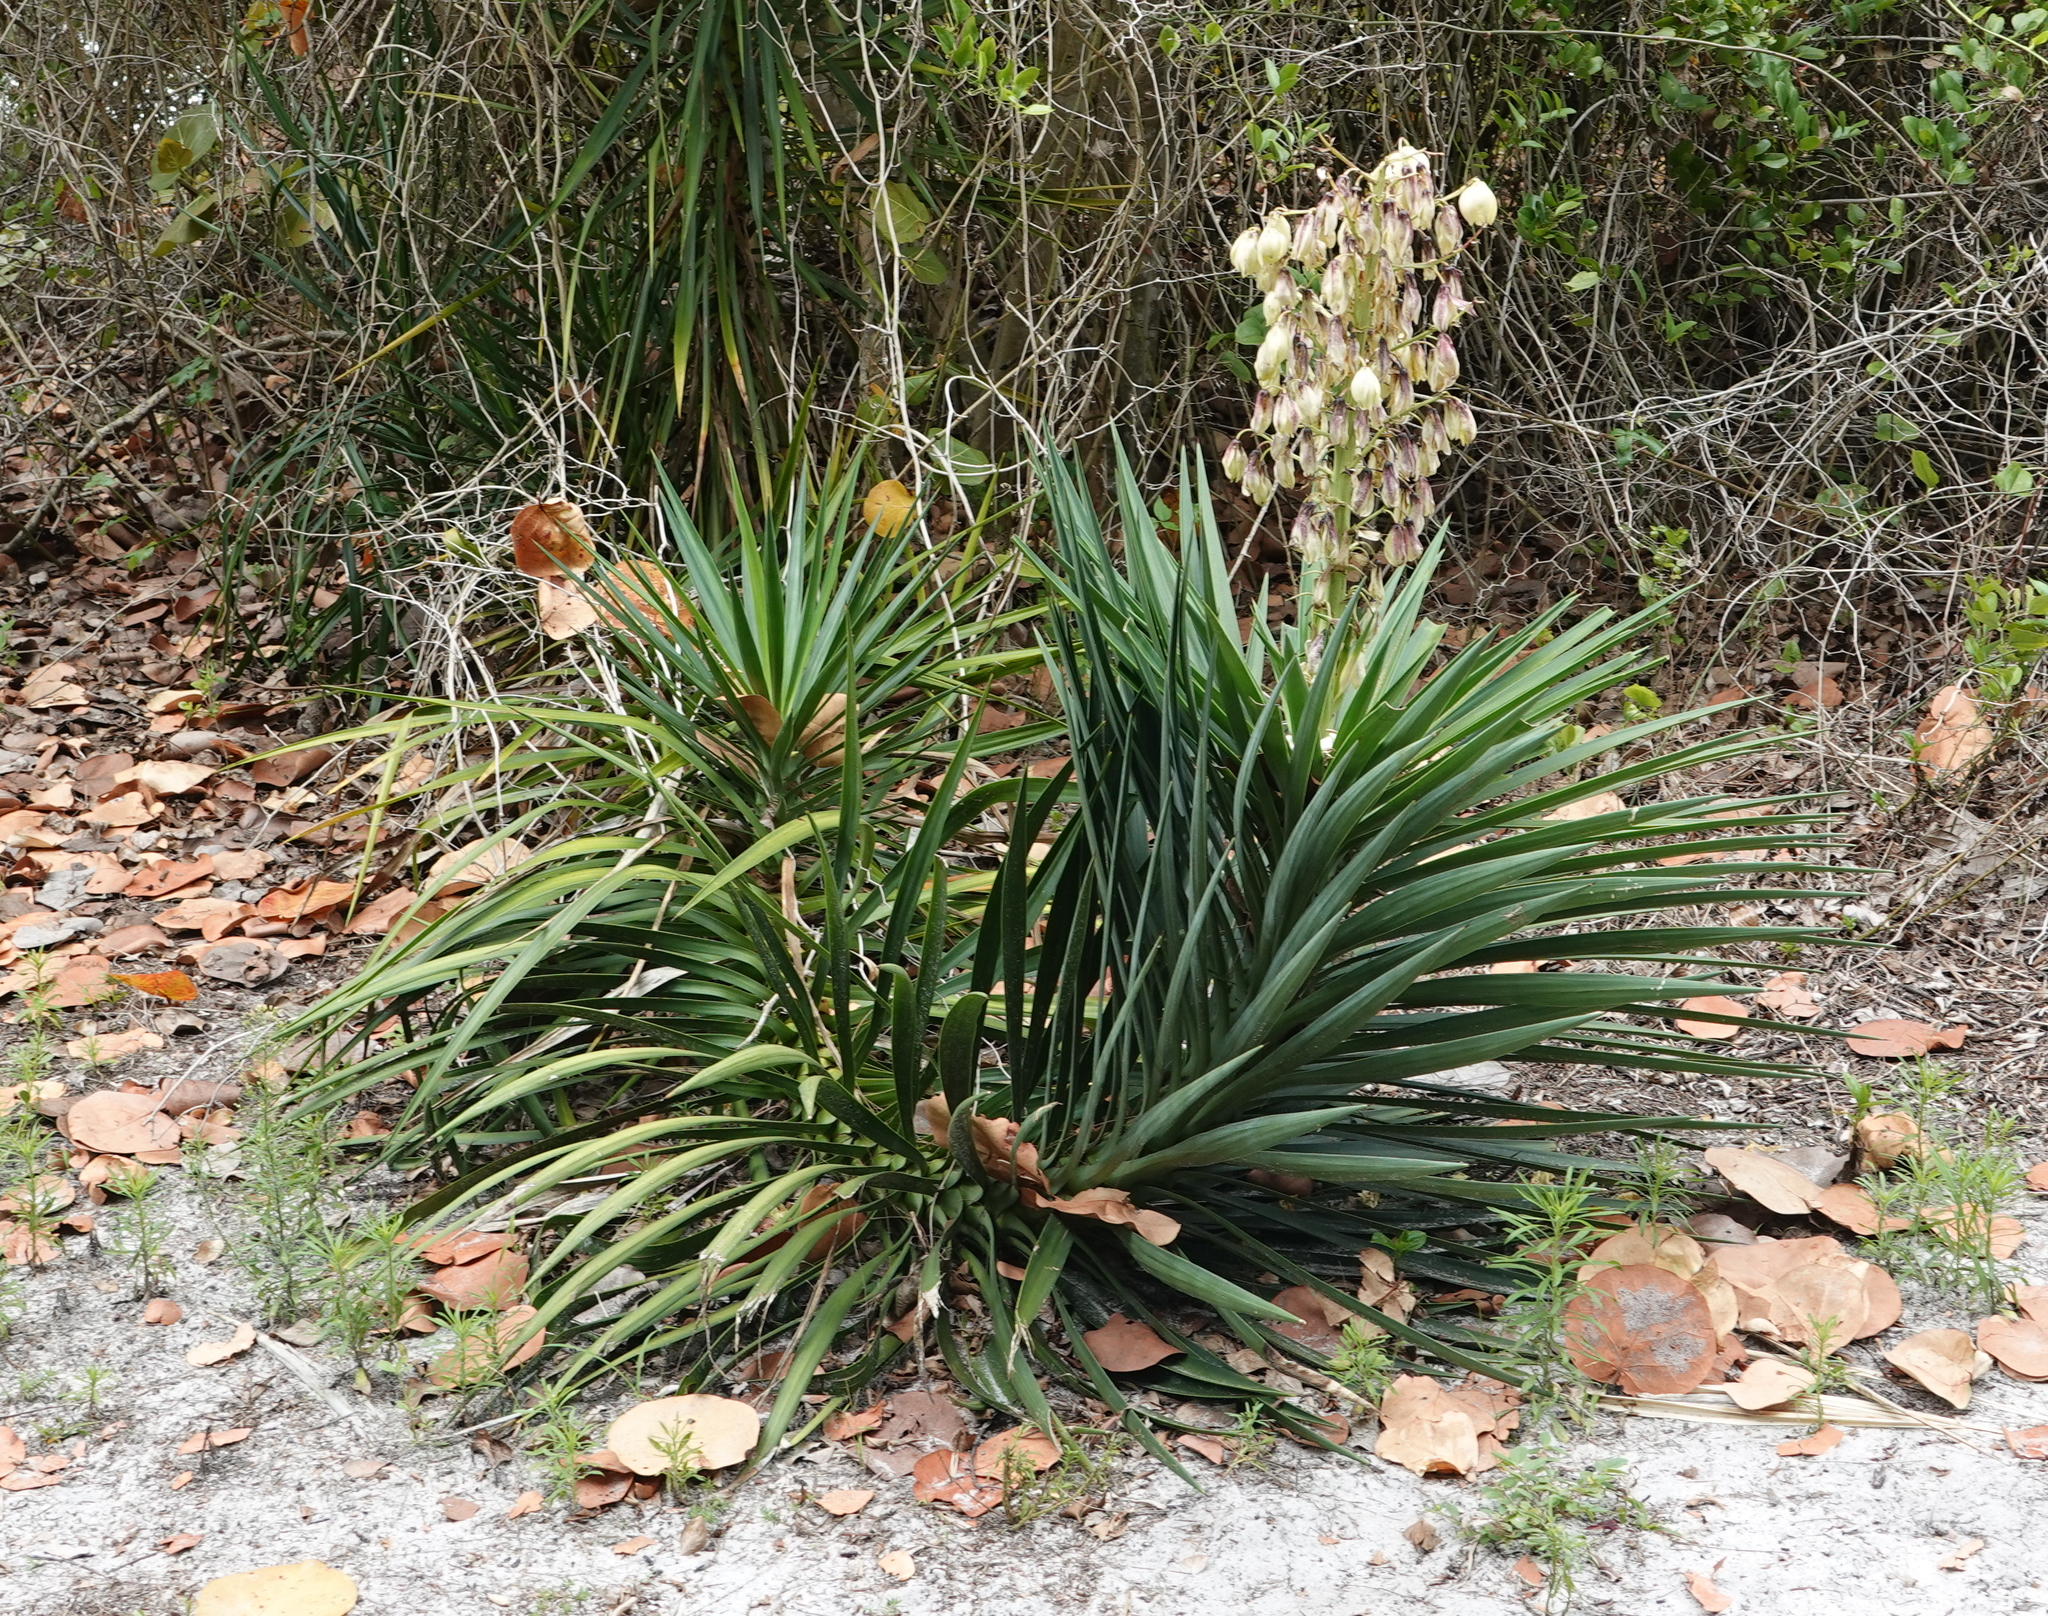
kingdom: Plantae
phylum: Tracheophyta
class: Liliopsida
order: Asparagales
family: Asparagaceae
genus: Yucca
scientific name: Yucca aloifolia
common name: Aloe yucca
